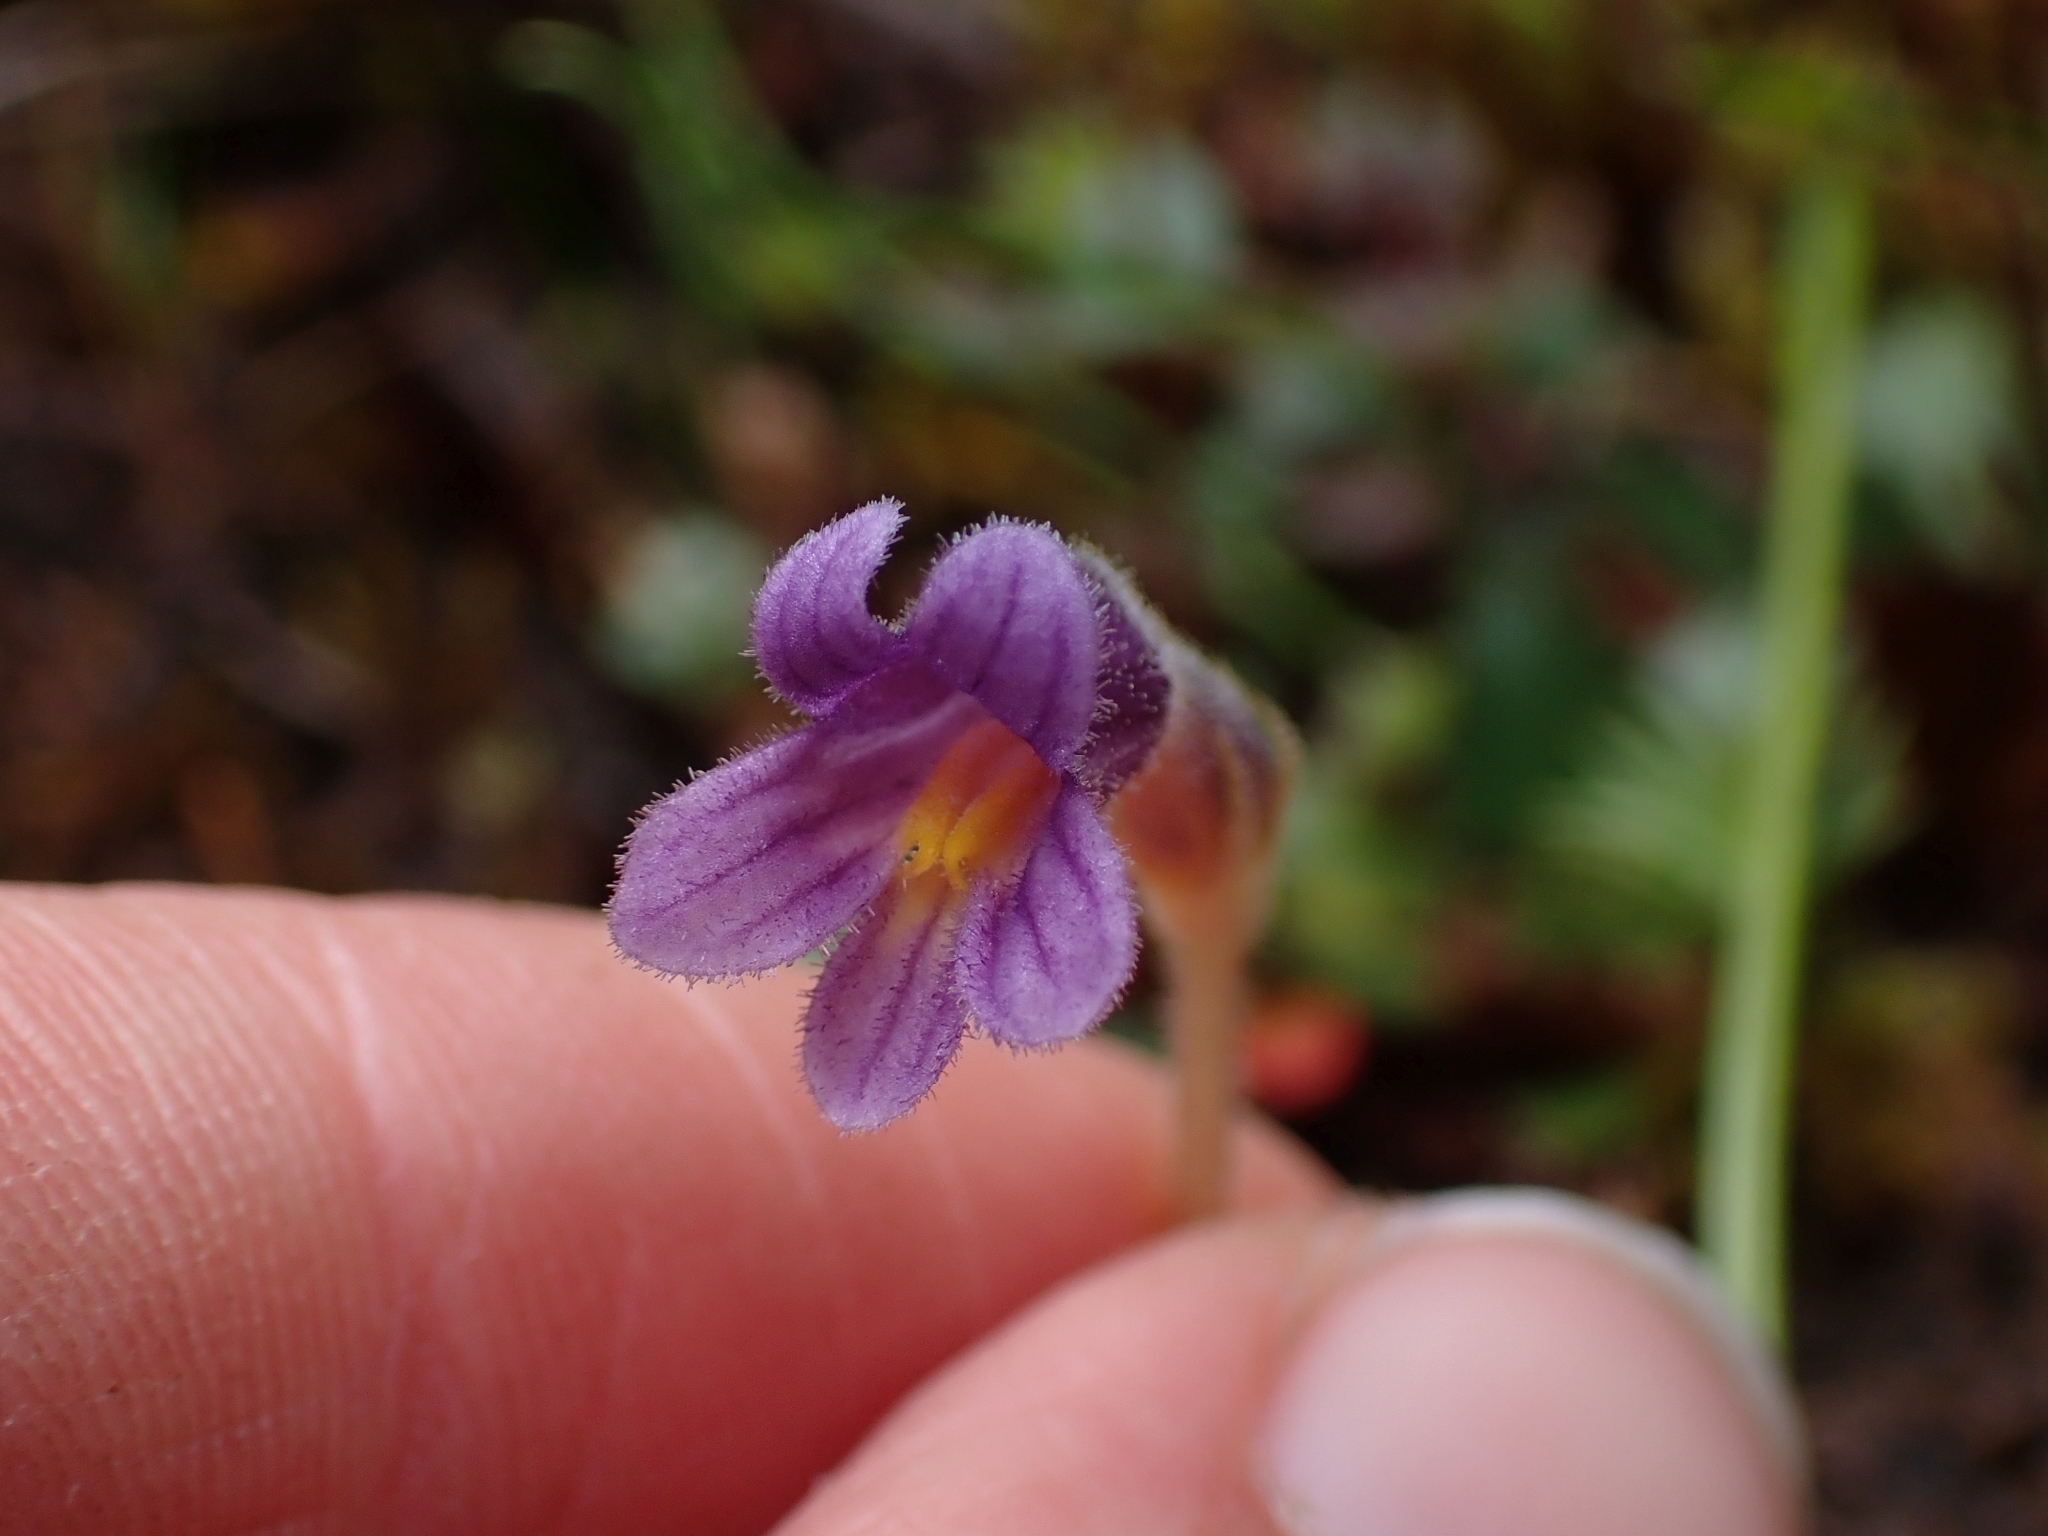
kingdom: Plantae
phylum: Tracheophyta
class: Magnoliopsida
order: Lamiales
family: Orobanchaceae
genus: Aphyllon
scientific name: Aphyllon uniflorum
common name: One-flowered broomrape
